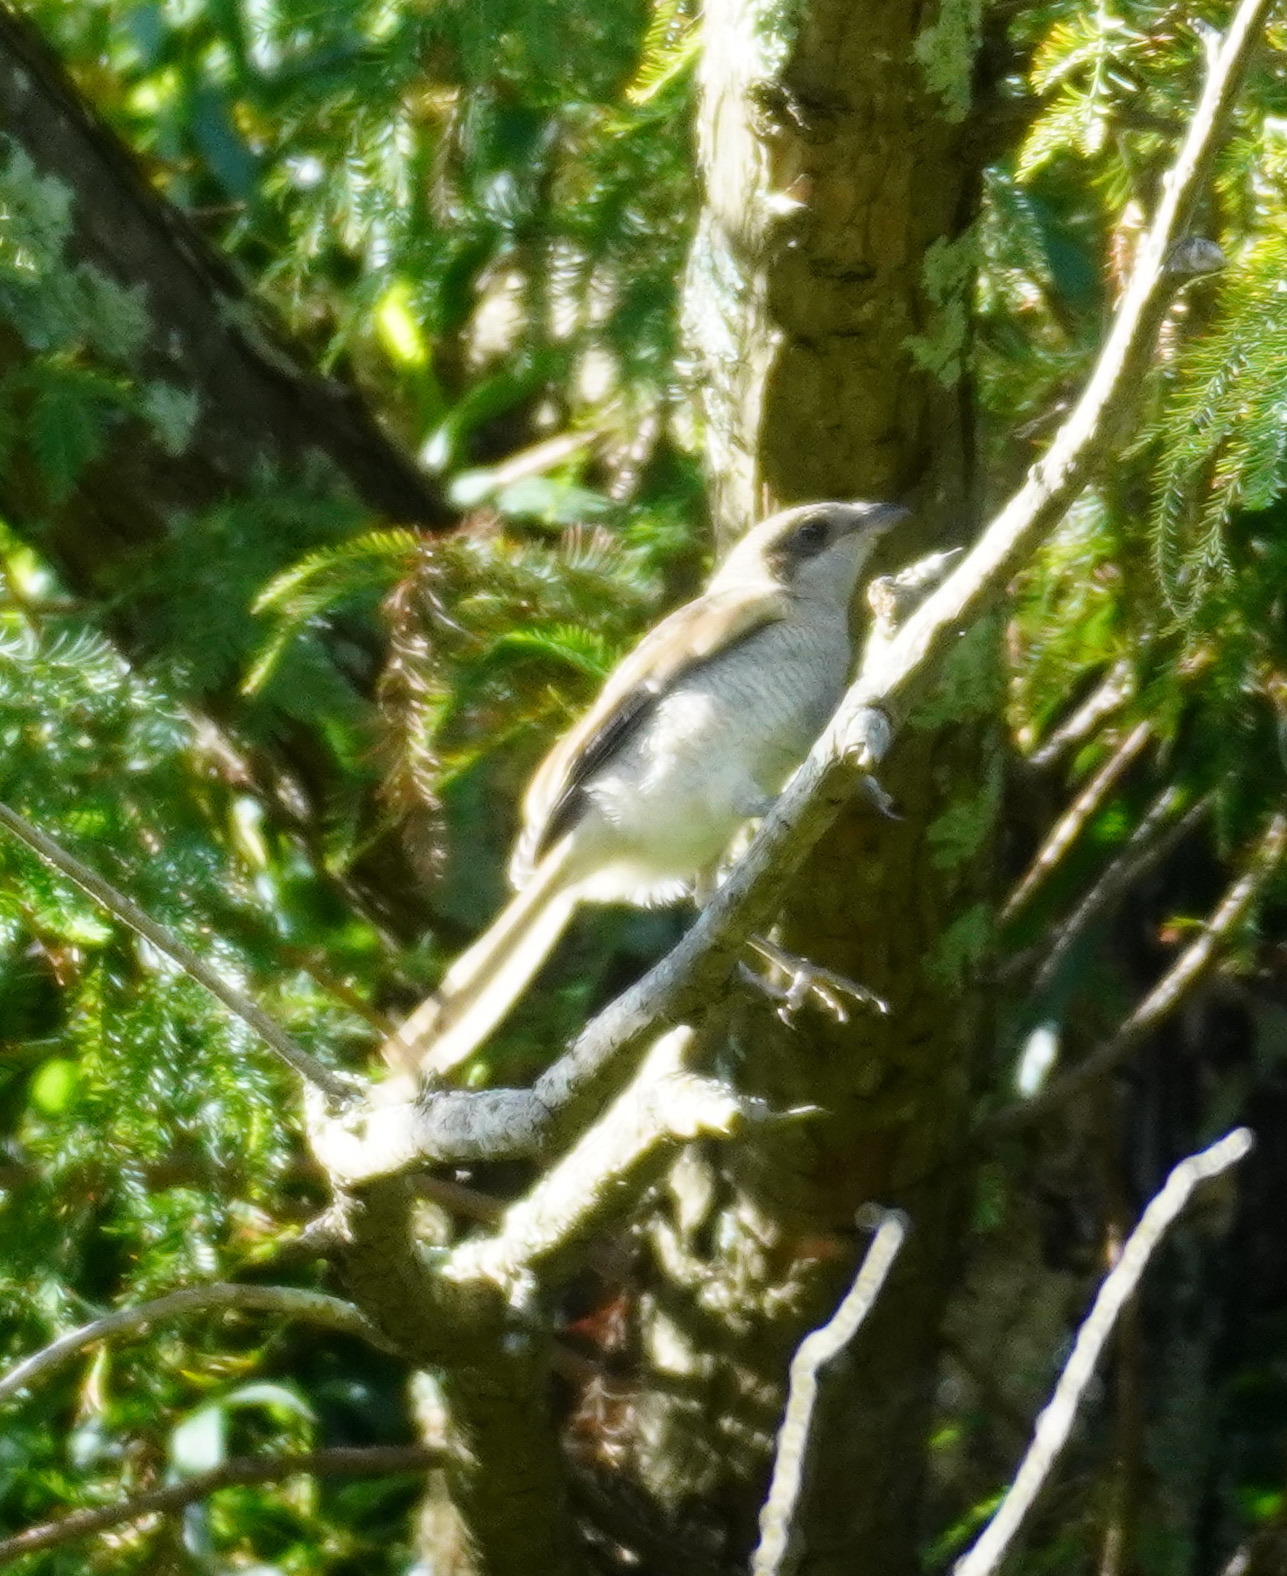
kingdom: Animalia
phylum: Chordata
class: Aves
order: Passeriformes
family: Laniidae
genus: Lanius
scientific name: Lanius collaris
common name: Southern fiscal
